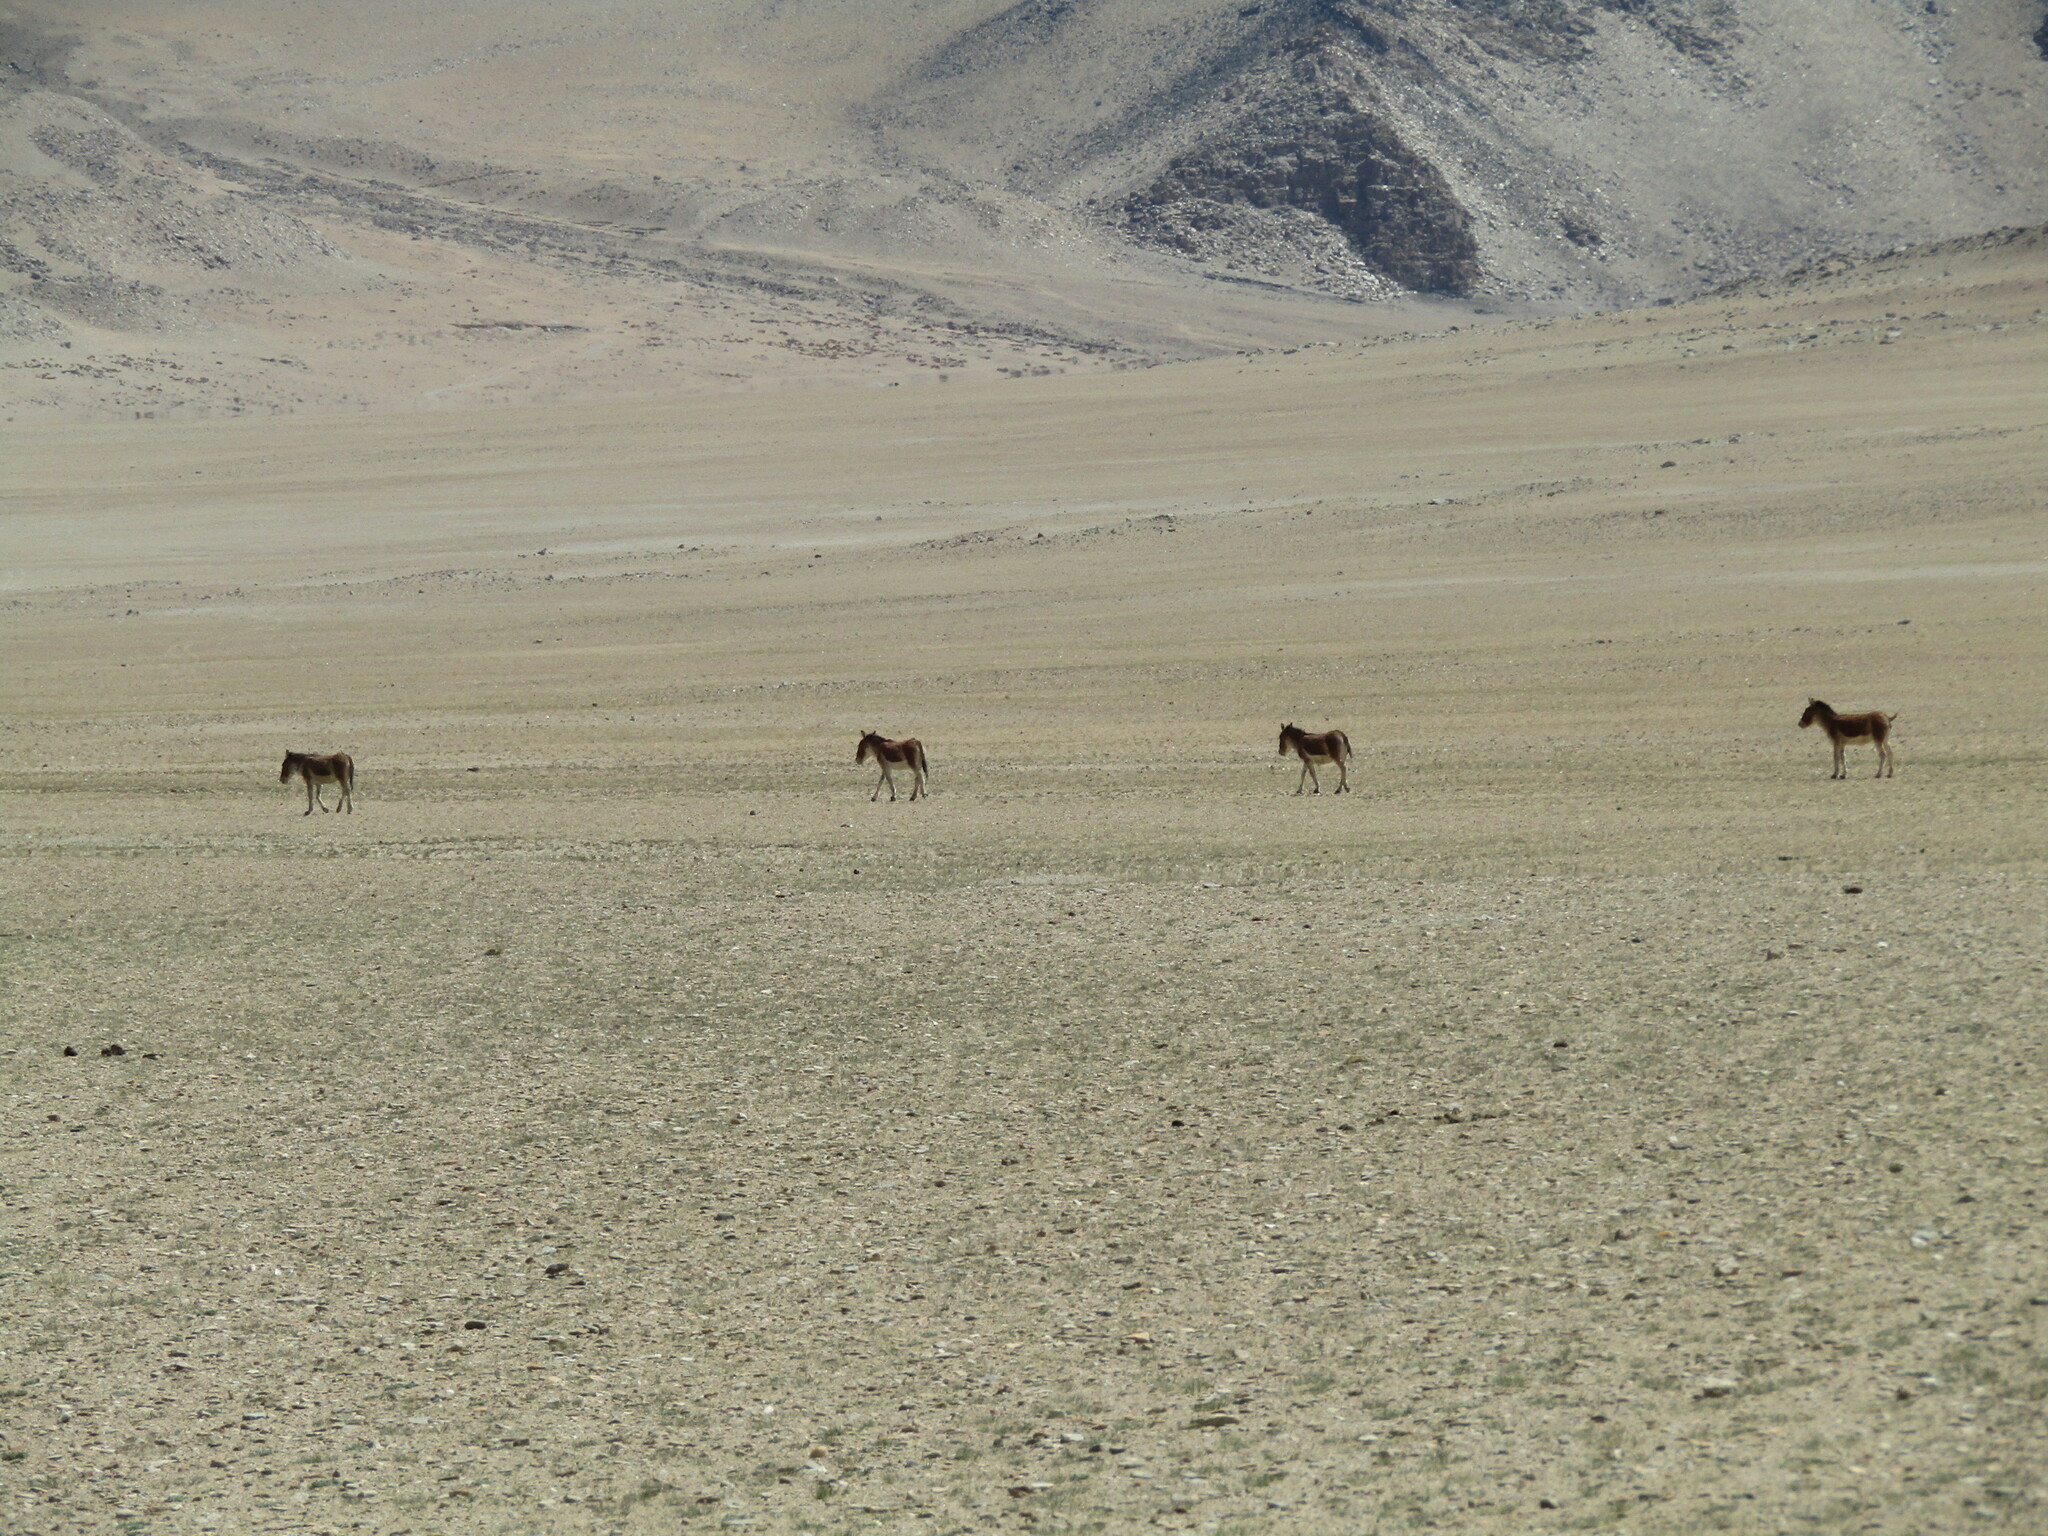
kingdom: Animalia
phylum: Chordata
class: Mammalia
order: Perissodactyla
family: Equidae
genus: Equus
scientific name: Equus kiang
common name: Kiang
